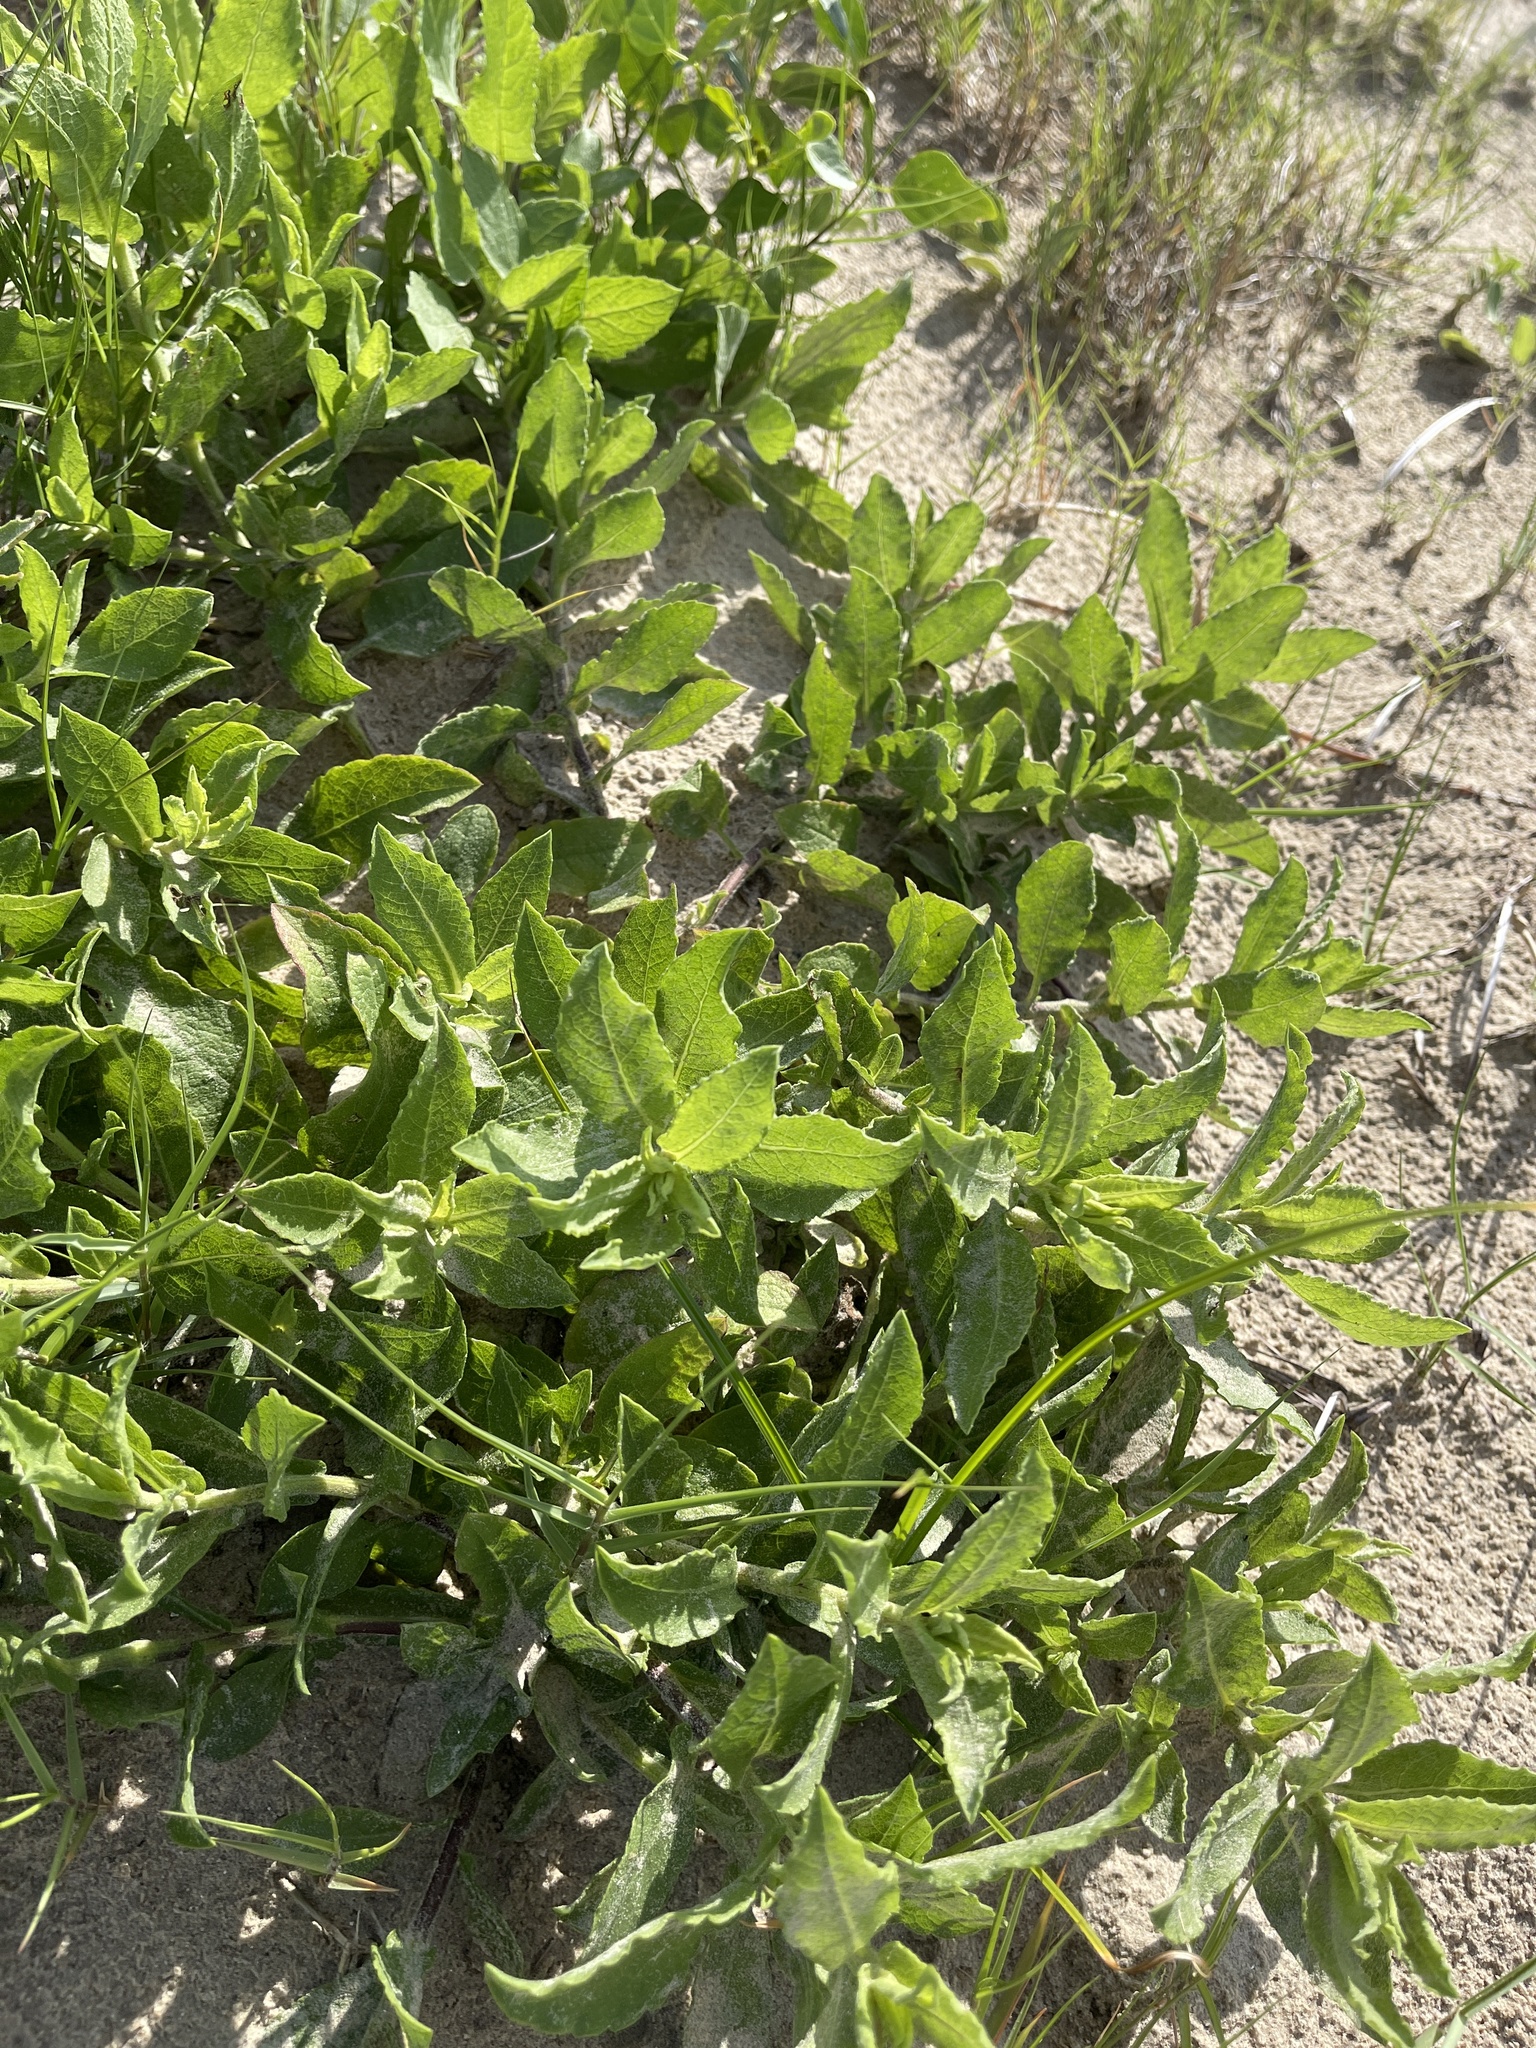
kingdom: Plantae
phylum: Tracheophyta
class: Magnoliopsida
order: Asterales
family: Asteraceae
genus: Heterotheca
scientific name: Heterotheca subaxillaris
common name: Camphorweed
